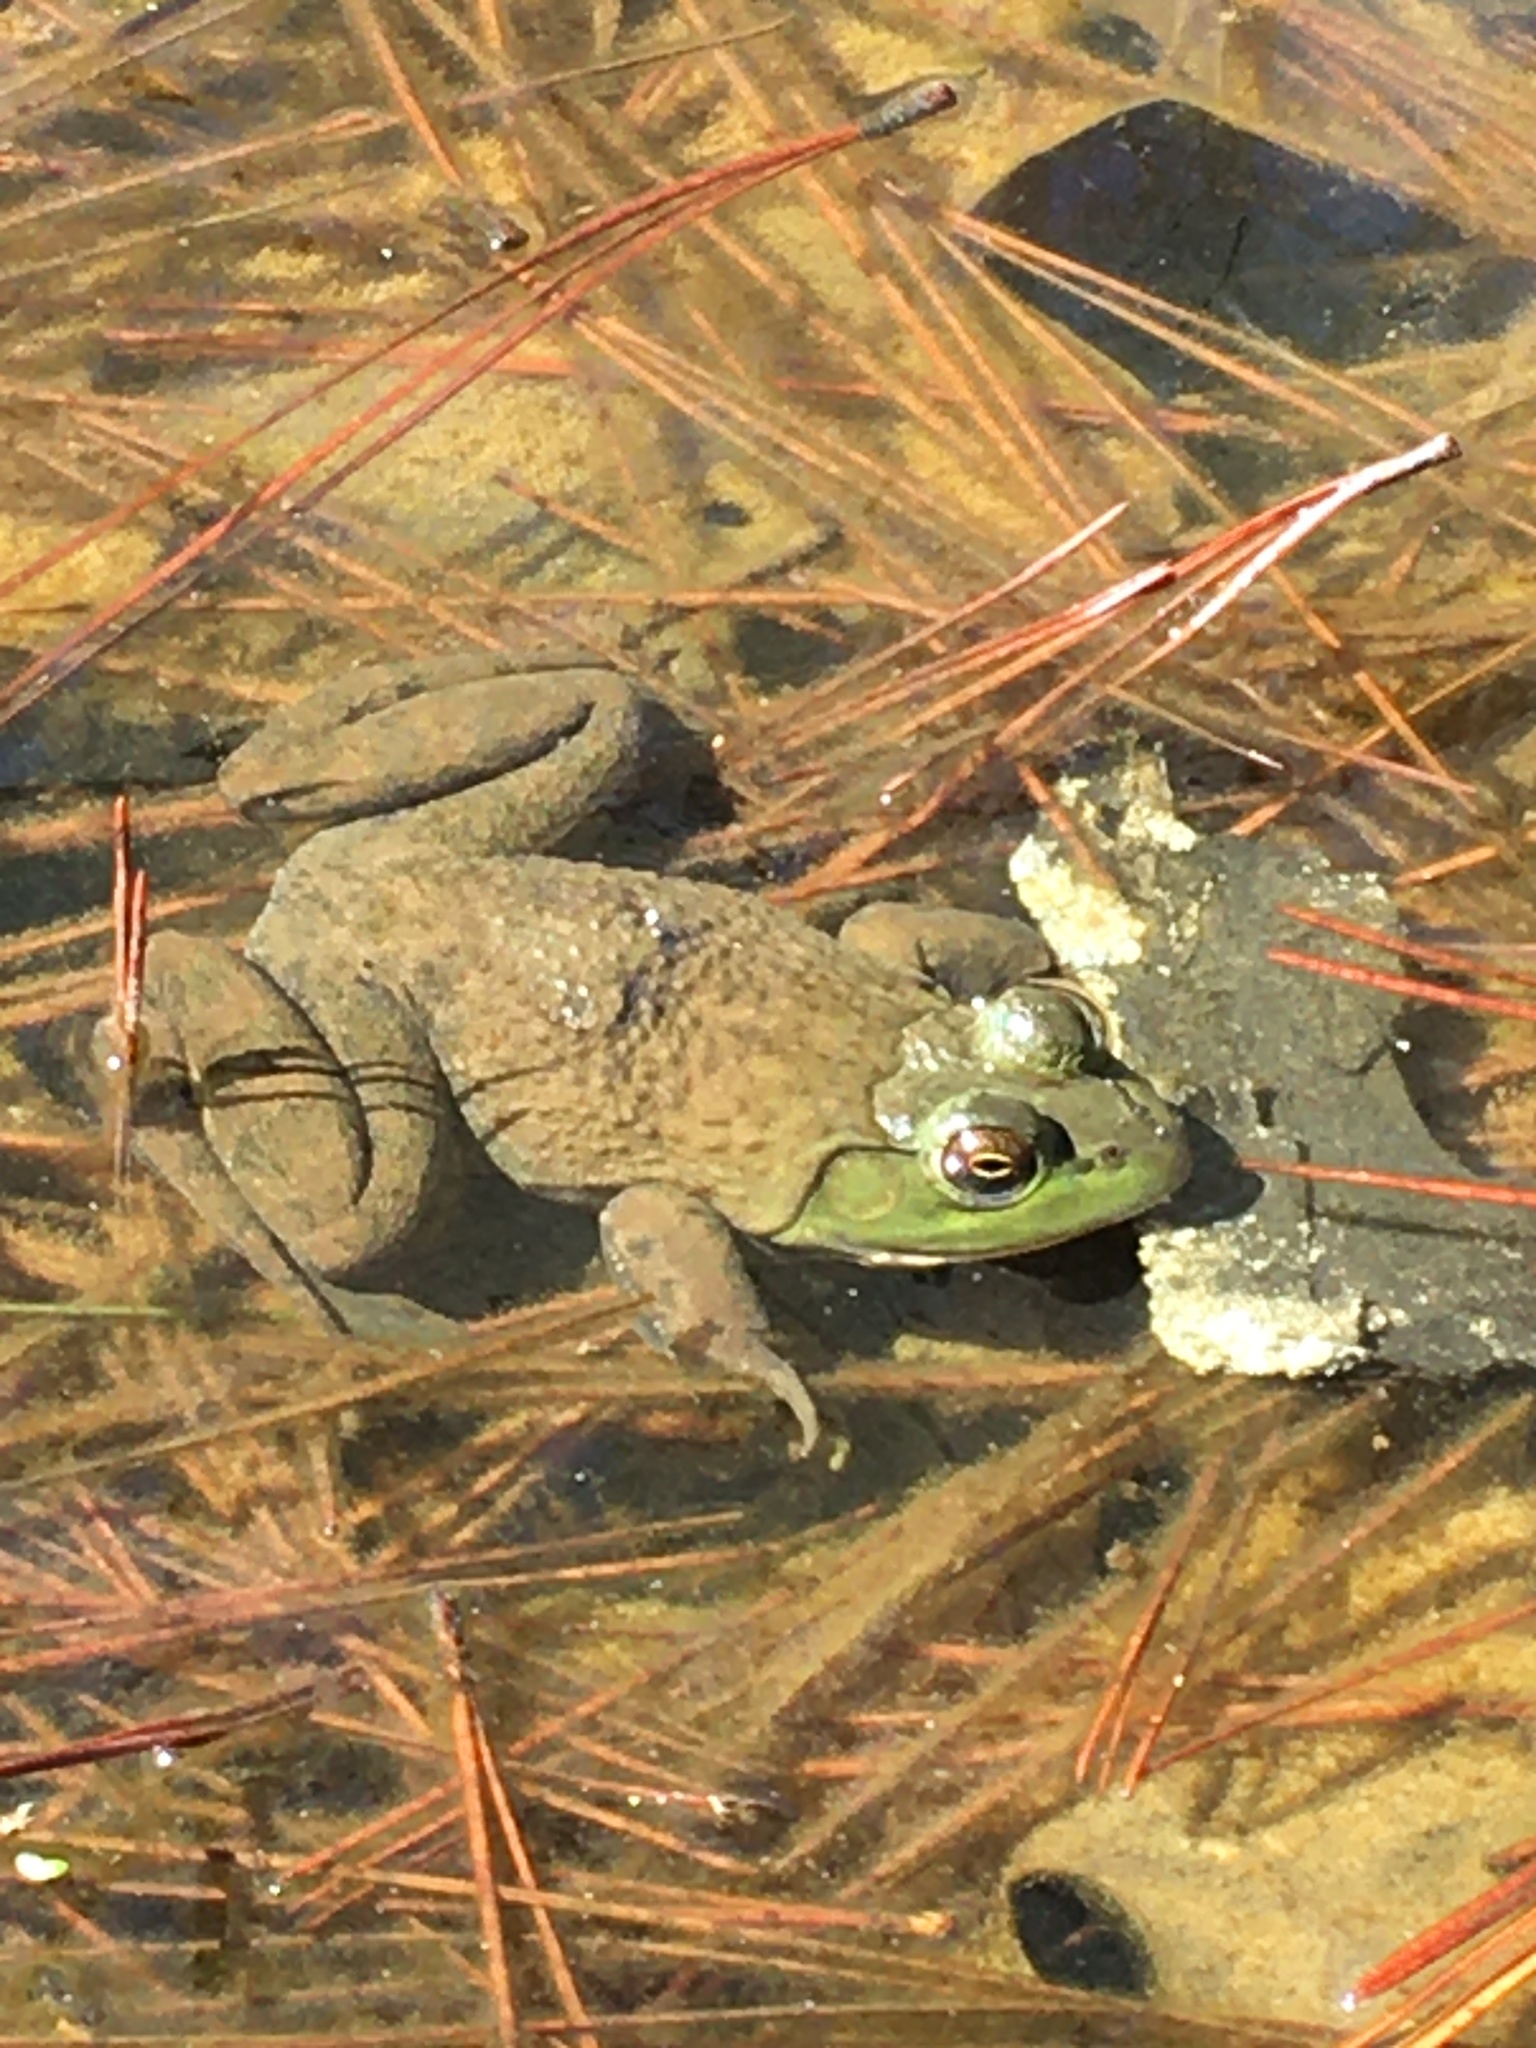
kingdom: Animalia
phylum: Chordata
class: Amphibia
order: Anura
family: Ranidae
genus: Lithobates
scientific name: Lithobates catesbeianus
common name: American bullfrog
